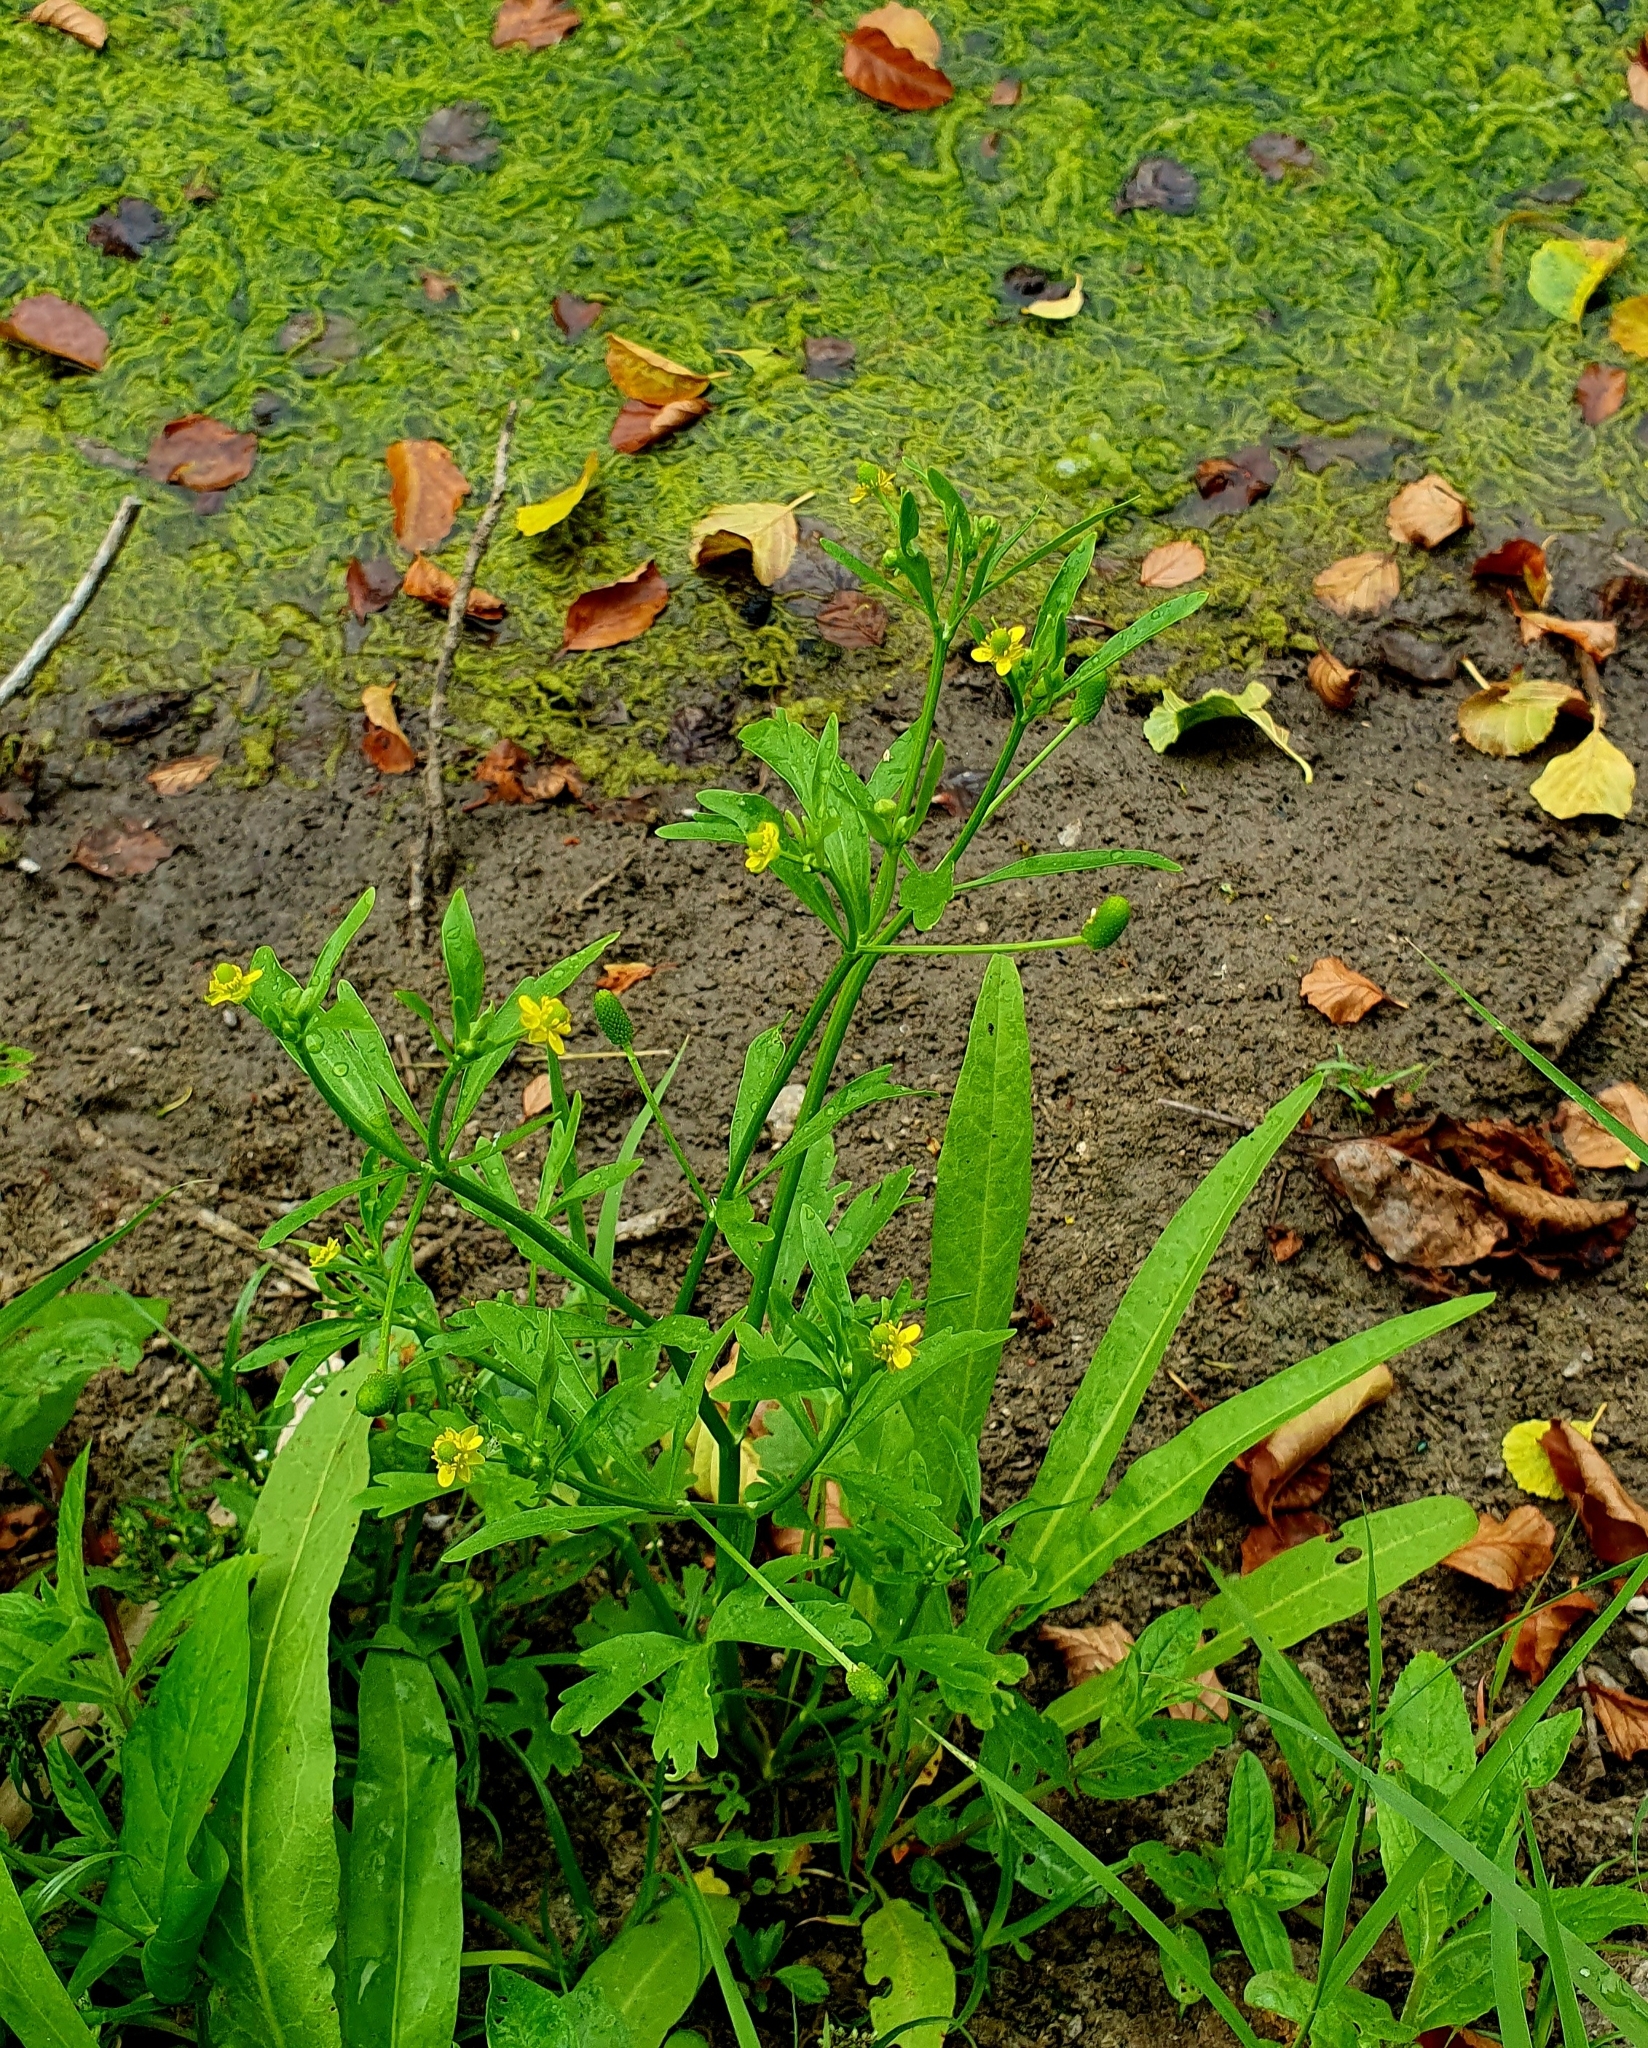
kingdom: Plantae
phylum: Tracheophyta
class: Magnoliopsida
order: Ranunculales
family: Ranunculaceae
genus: Ranunculus
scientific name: Ranunculus sceleratus
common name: Celery-leaved buttercup
